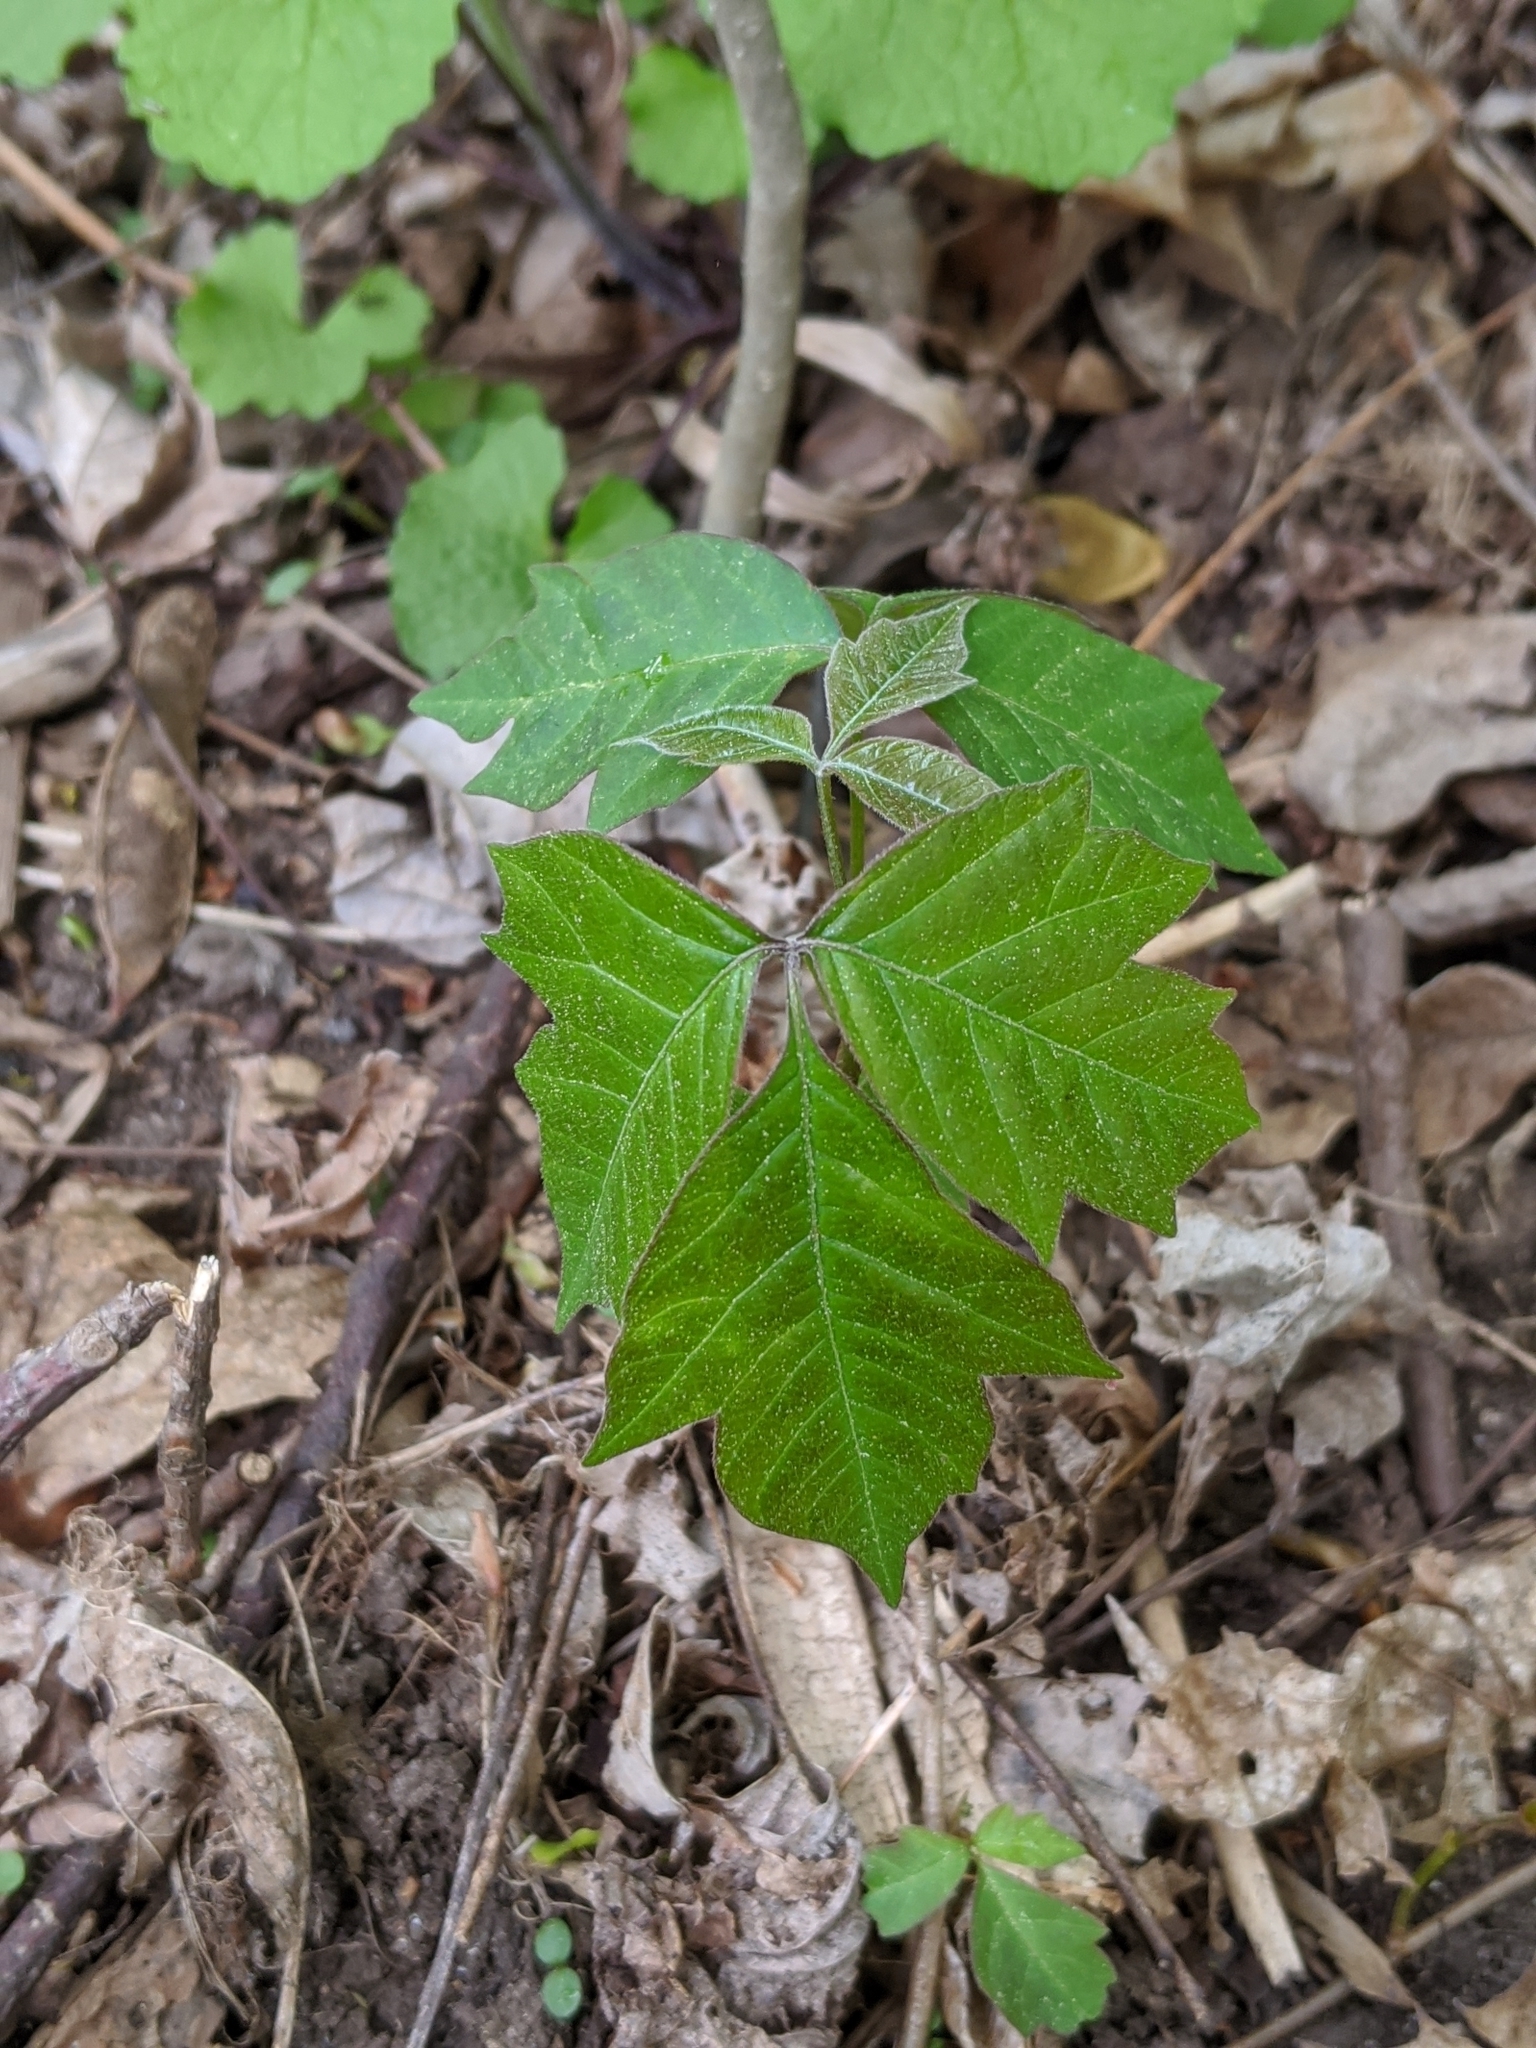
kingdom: Plantae
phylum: Tracheophyta
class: Magnoliopsida
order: Sapindales
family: Anacardiaceae
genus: Toxicodendron
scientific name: Toxicodendron radicans
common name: Poison ivy
